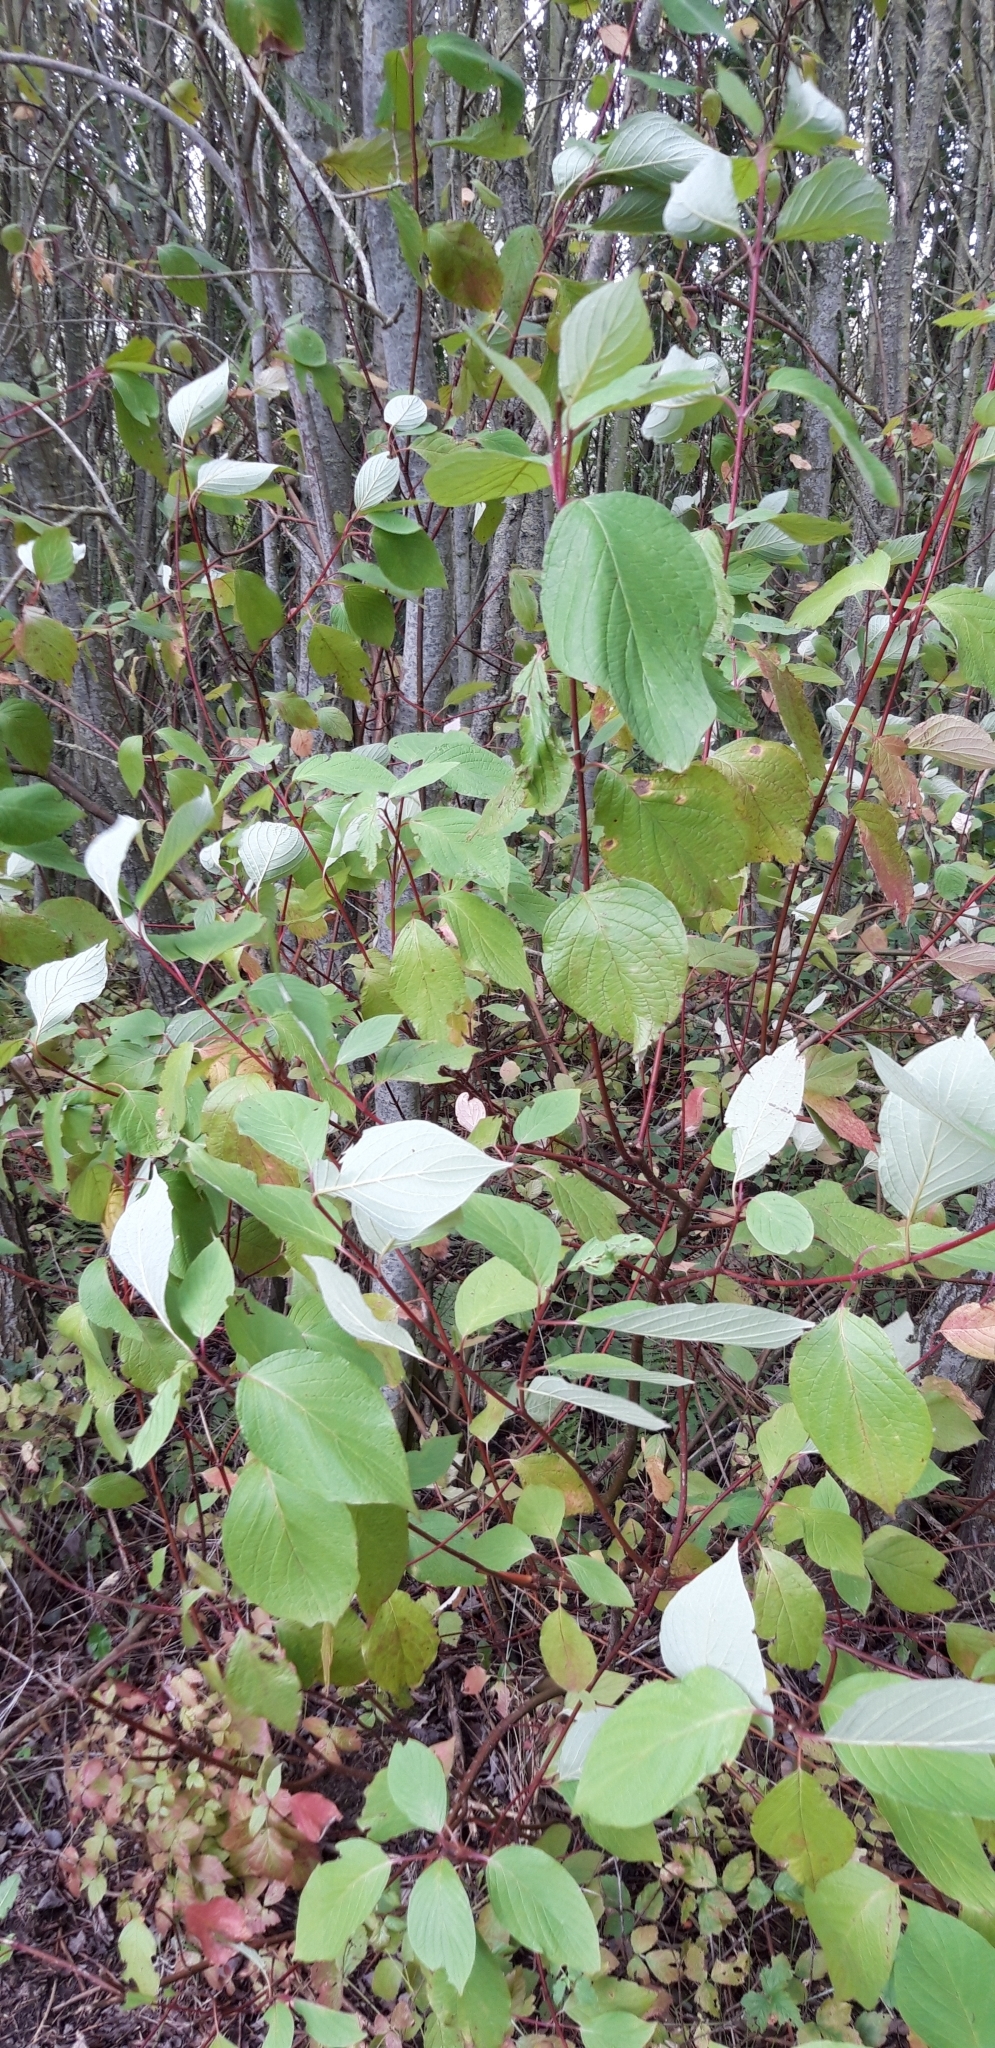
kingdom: Plantae
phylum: Tracheophyta
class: Magnoliopsida
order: Cornales
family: Cornaceae
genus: Cornus
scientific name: Cornus sericea
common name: Red-osier dogwood
